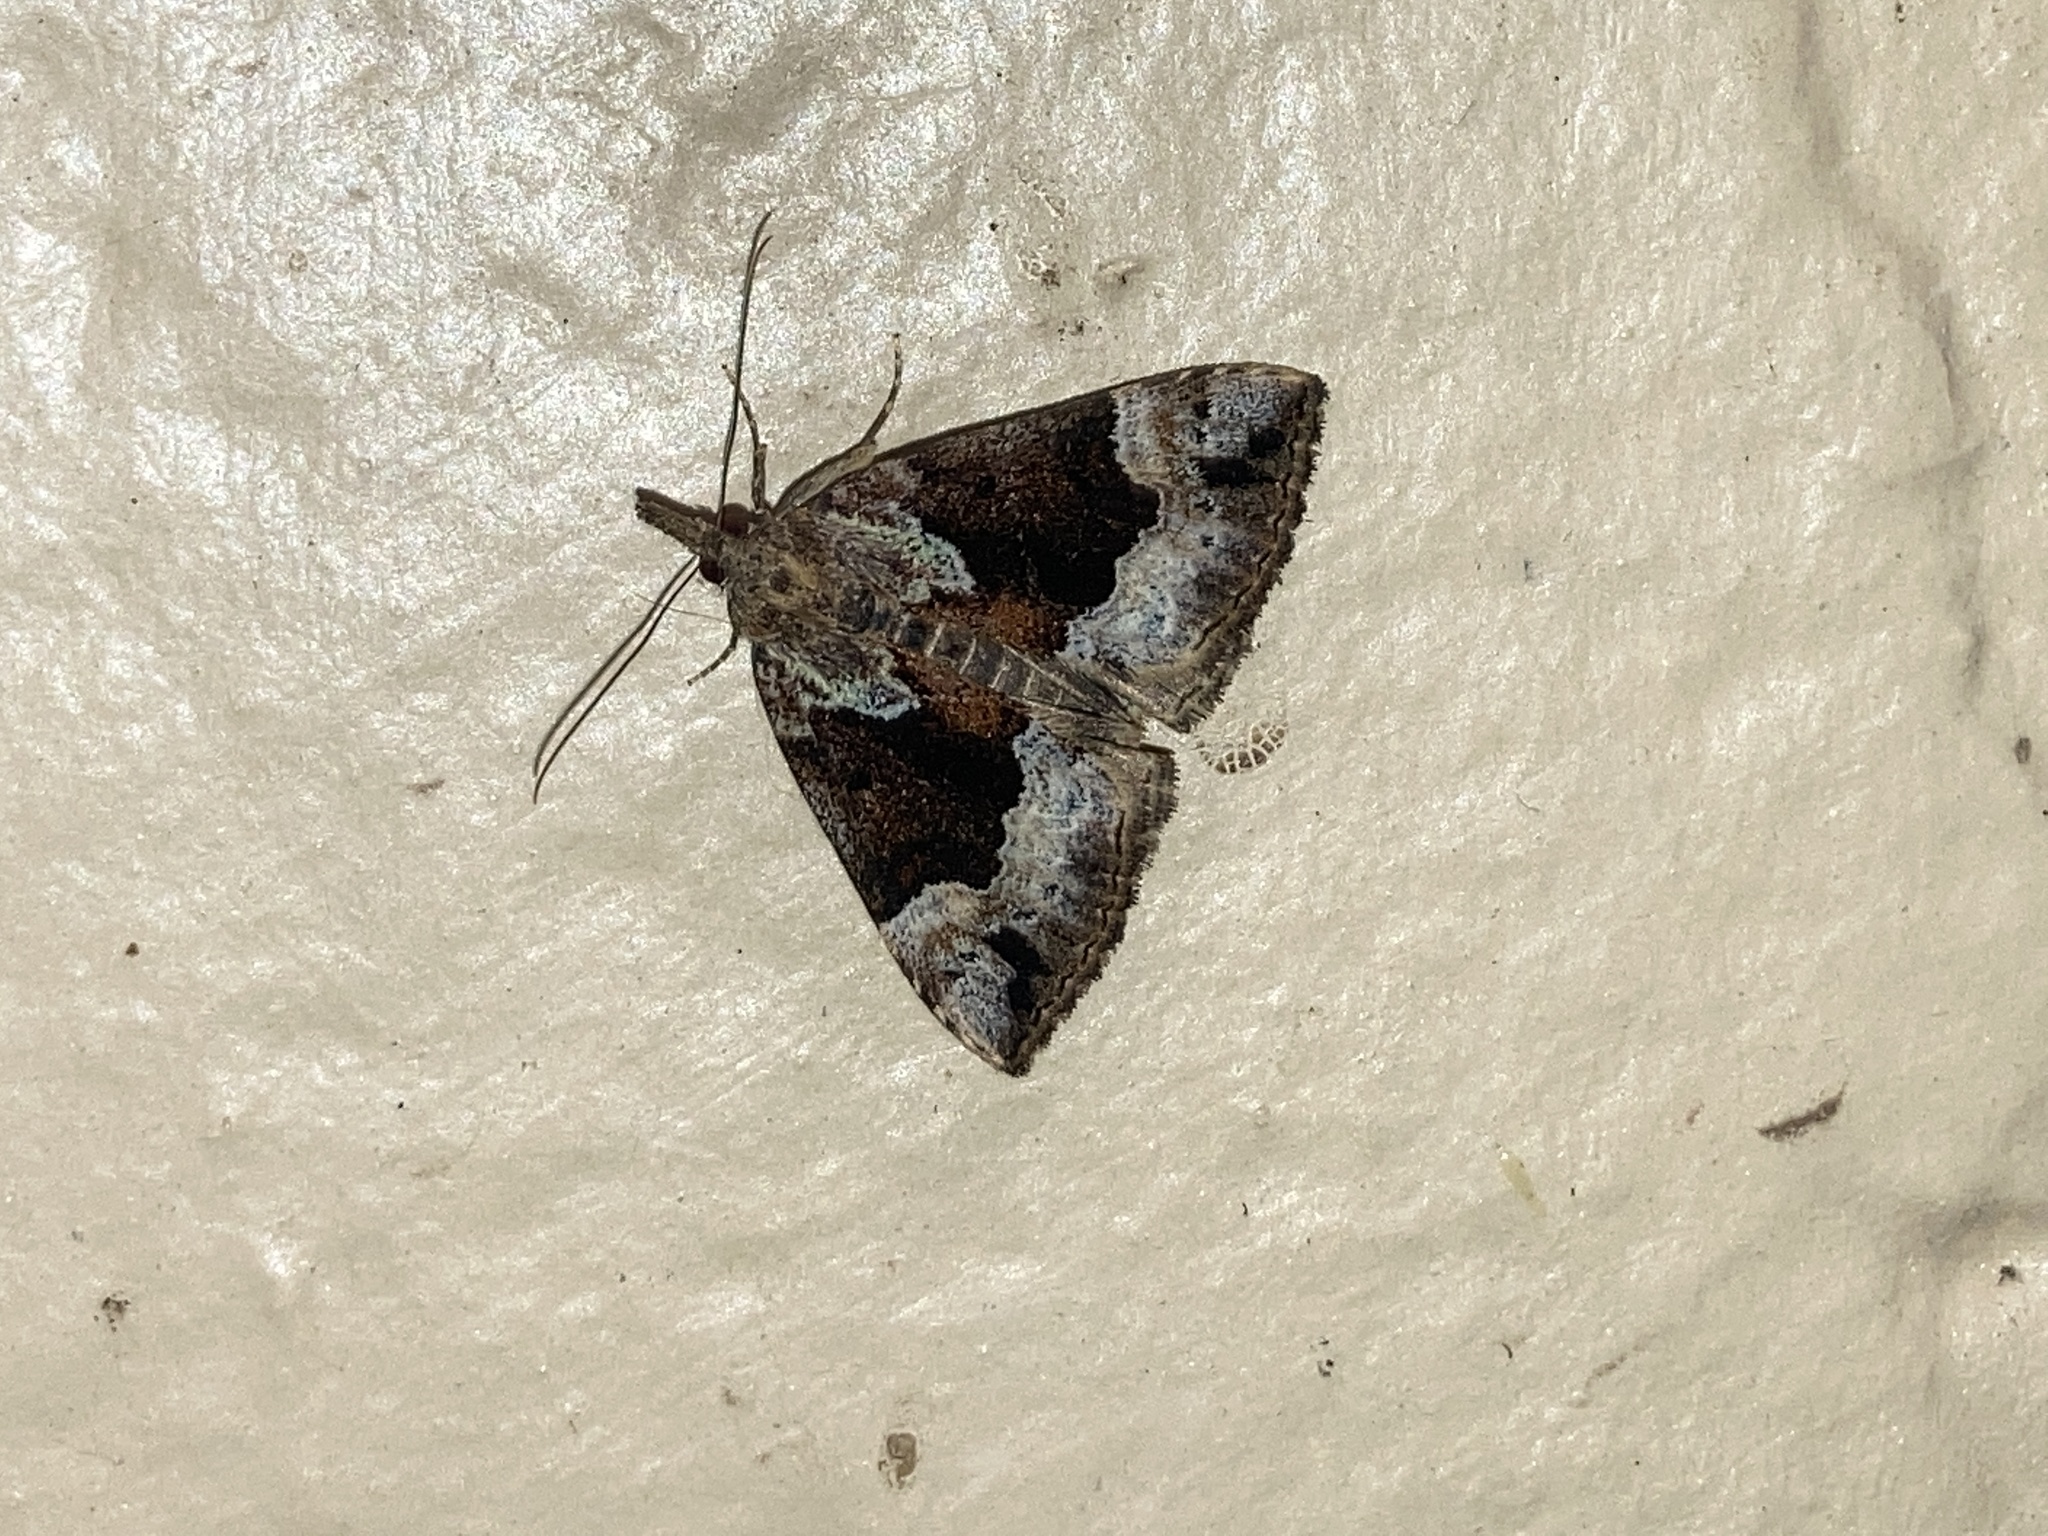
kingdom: Animalia
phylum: Arthropoda
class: Insecta
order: Lepidoptera
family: Erebidae
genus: Hypena
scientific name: Hypena palparia
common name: Mottled bomolocha moth
